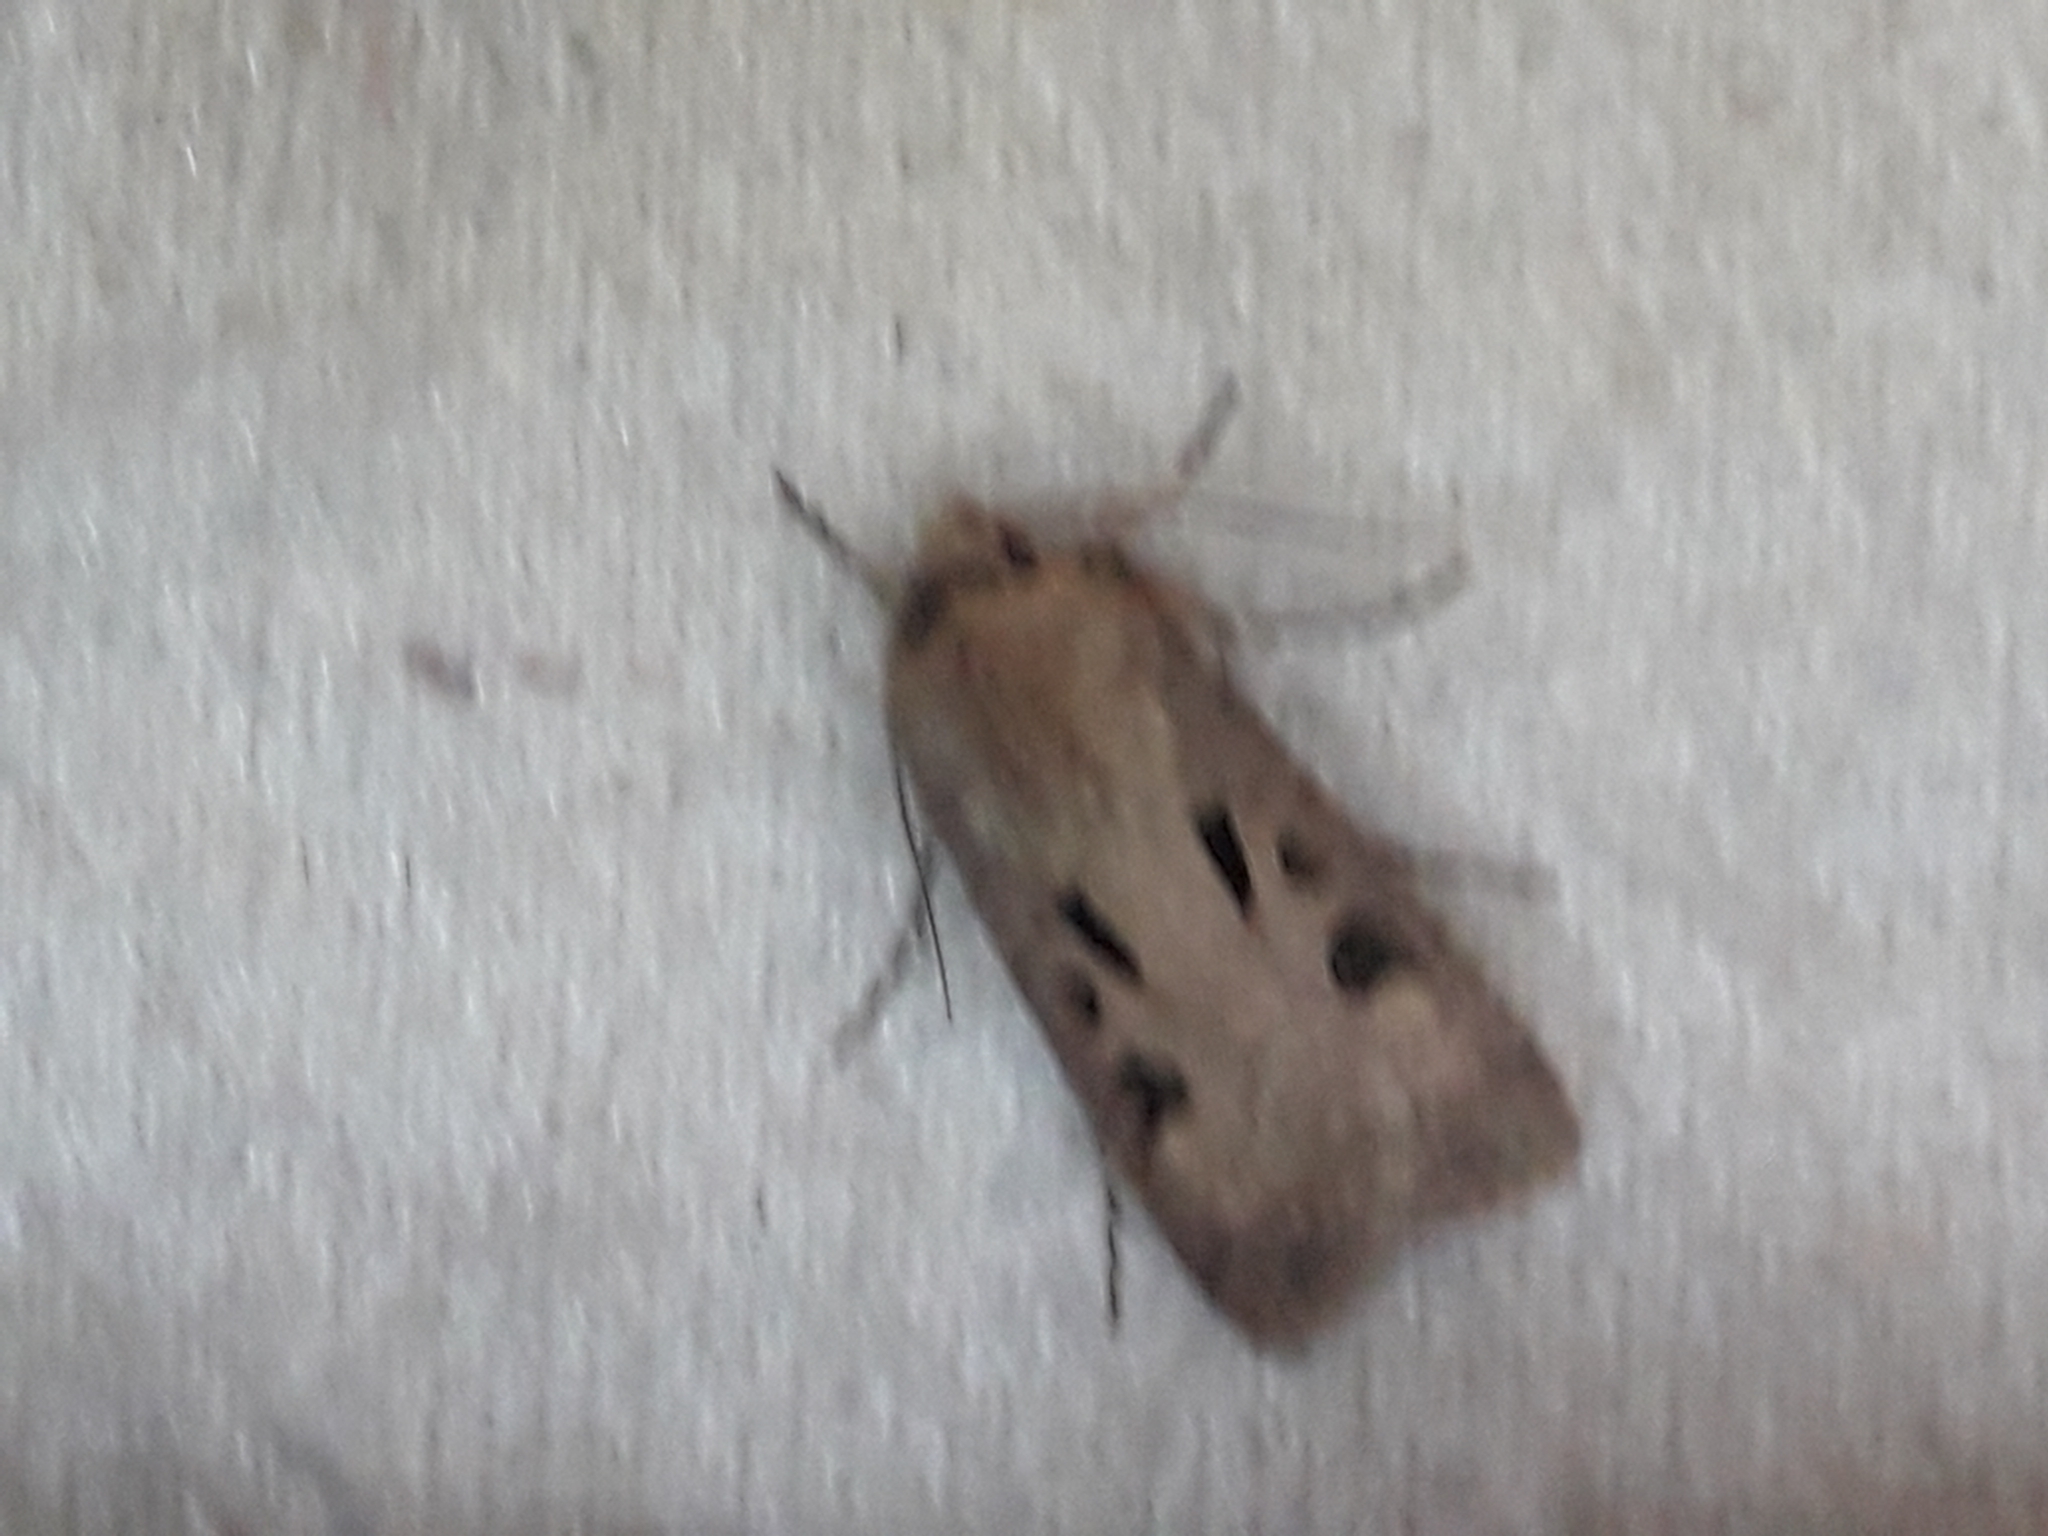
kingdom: Animalia
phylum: Arthropoda
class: Insecta
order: Lepidoptera
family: Noctuidae
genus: Agrotis
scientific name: Agrotis exclamationis
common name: Heart and dart
